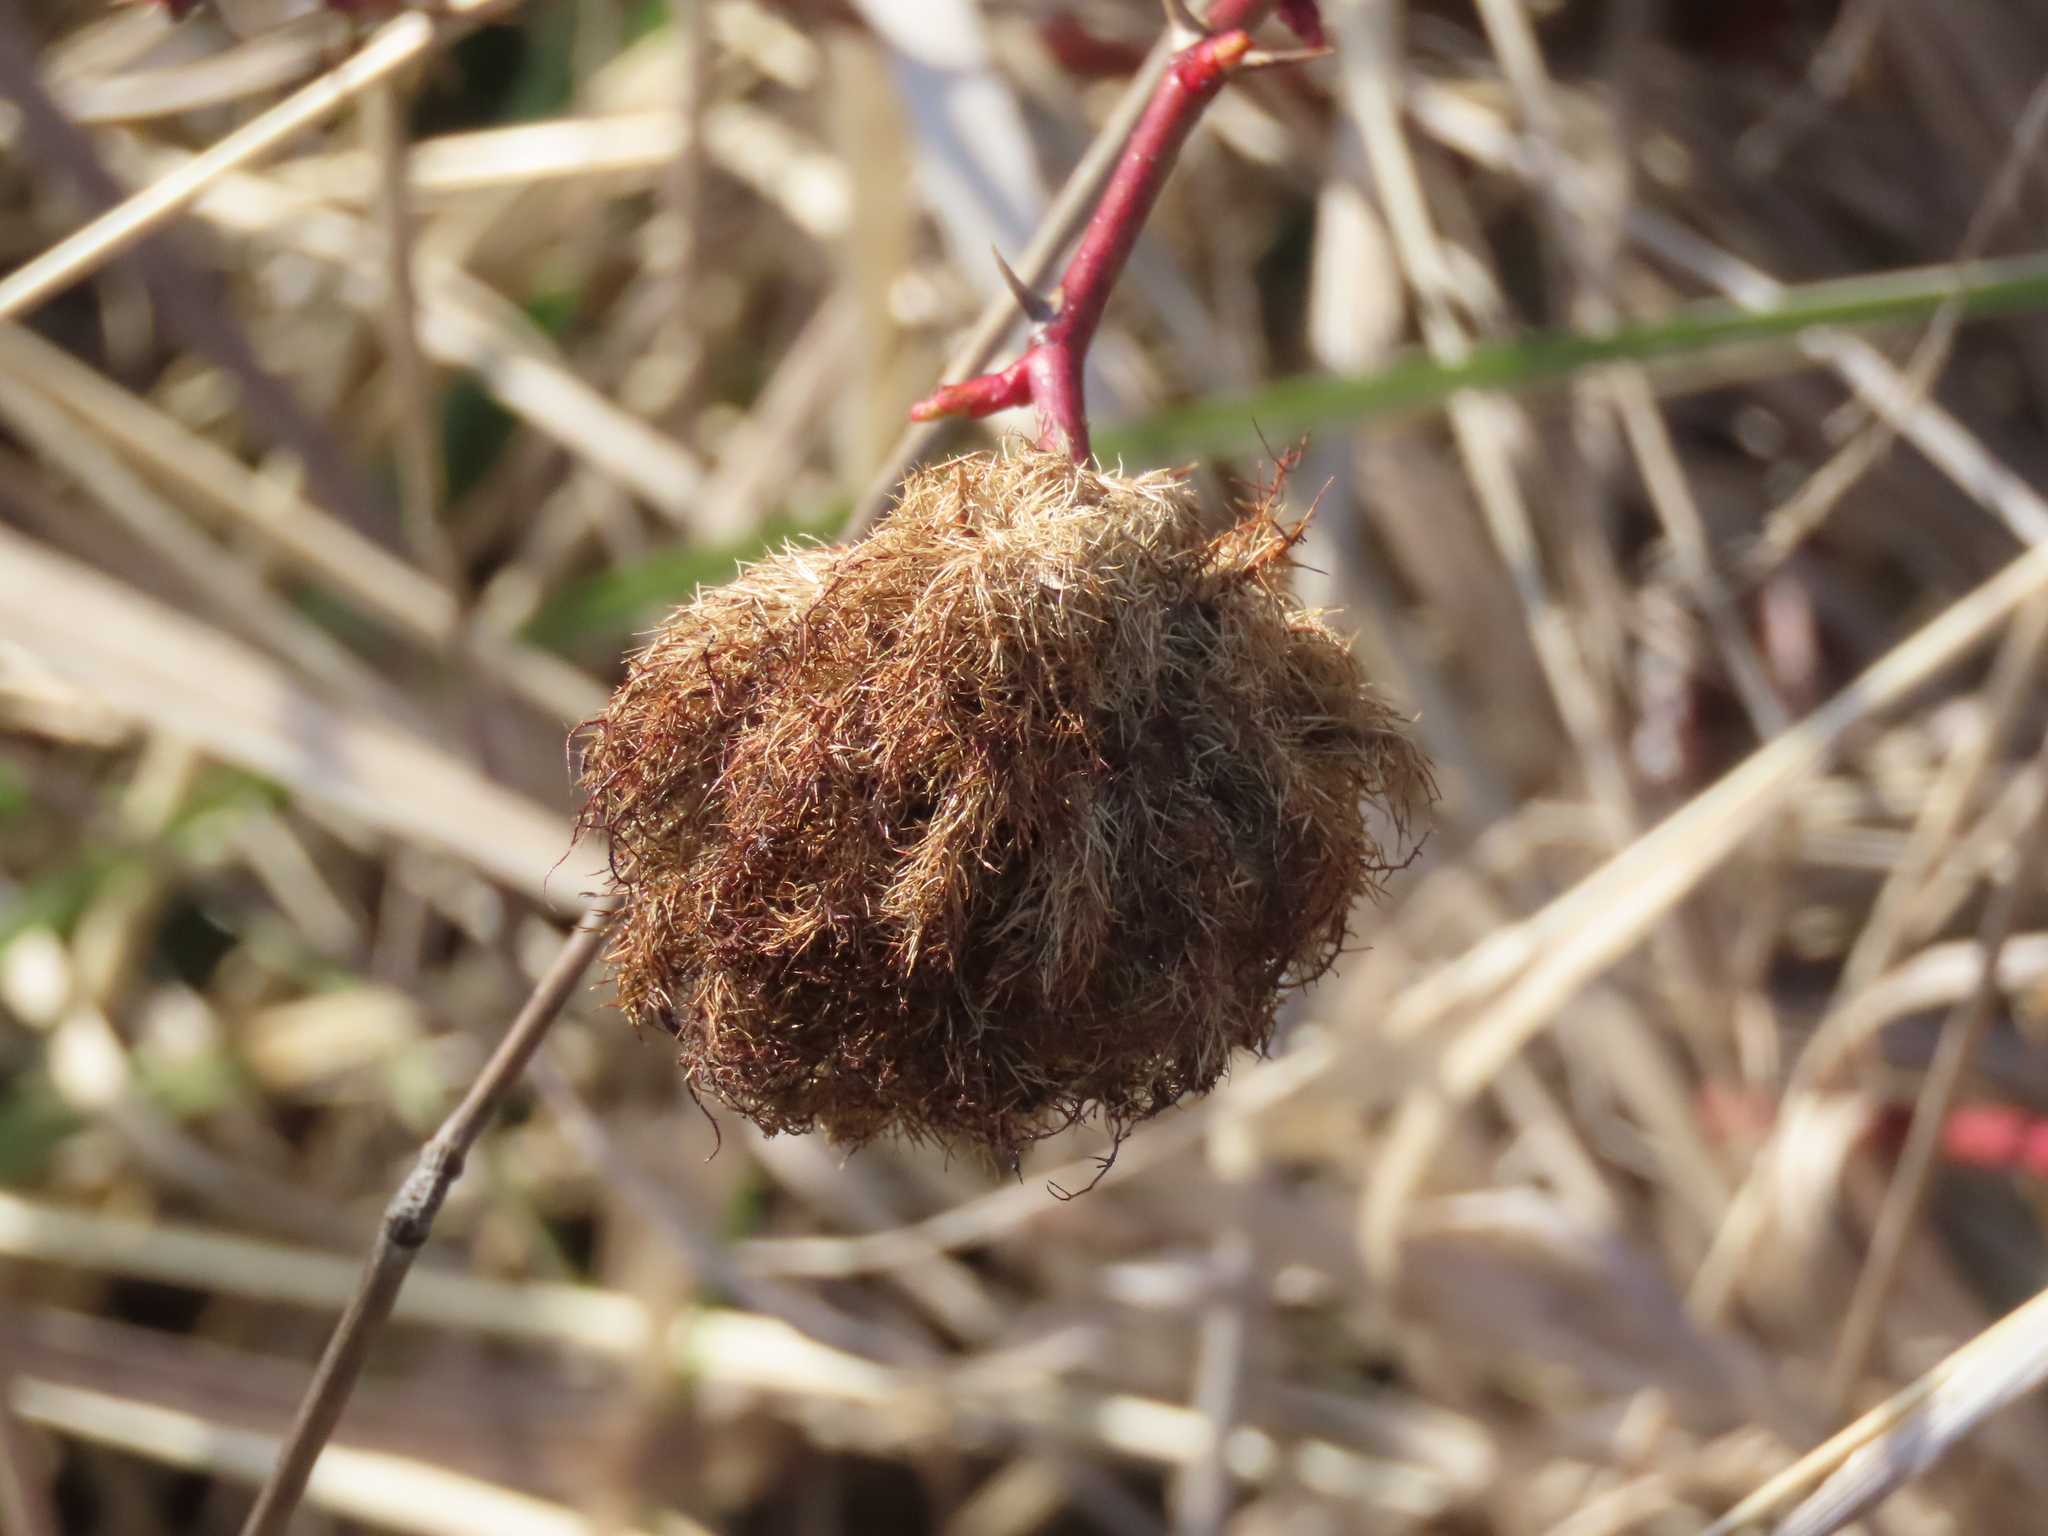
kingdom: Animalia
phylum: Arthropoda
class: Insecta
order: Hymenoptera
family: Cynipidae
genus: Diplolepis
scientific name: Diplolepis rosae
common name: Bedeguar gall
